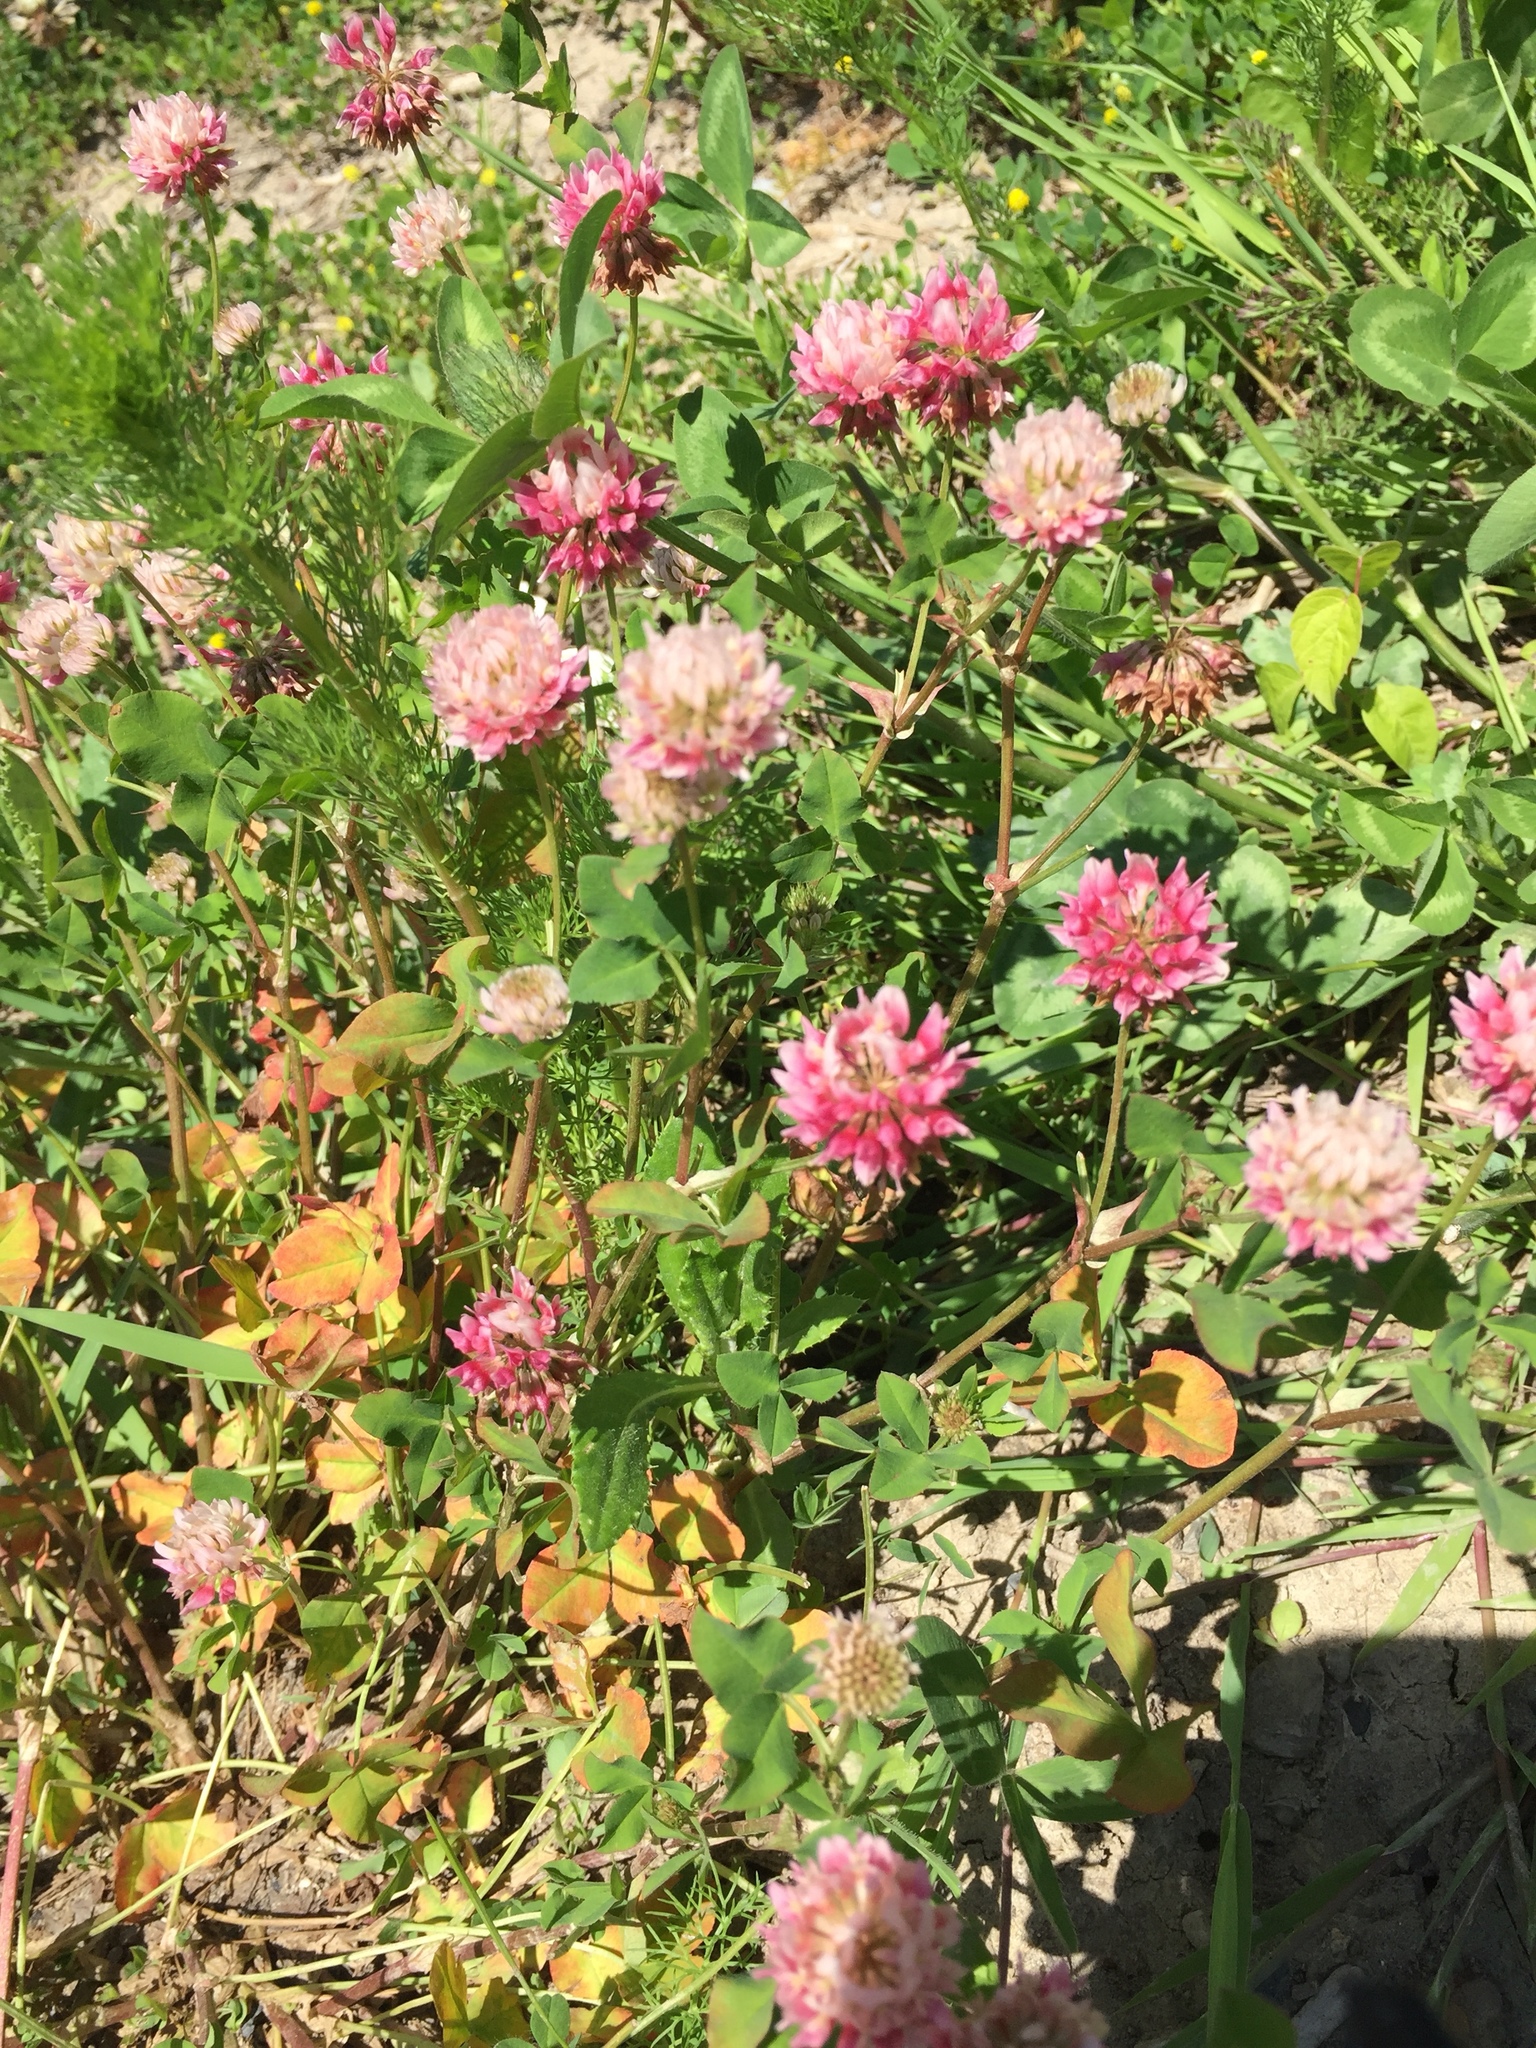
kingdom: Plantae
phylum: Tracheophyta
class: Magnoliopsida
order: Fabales
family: Fabaceae
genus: Trifolium
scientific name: Trifolium pratense
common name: Red clover
